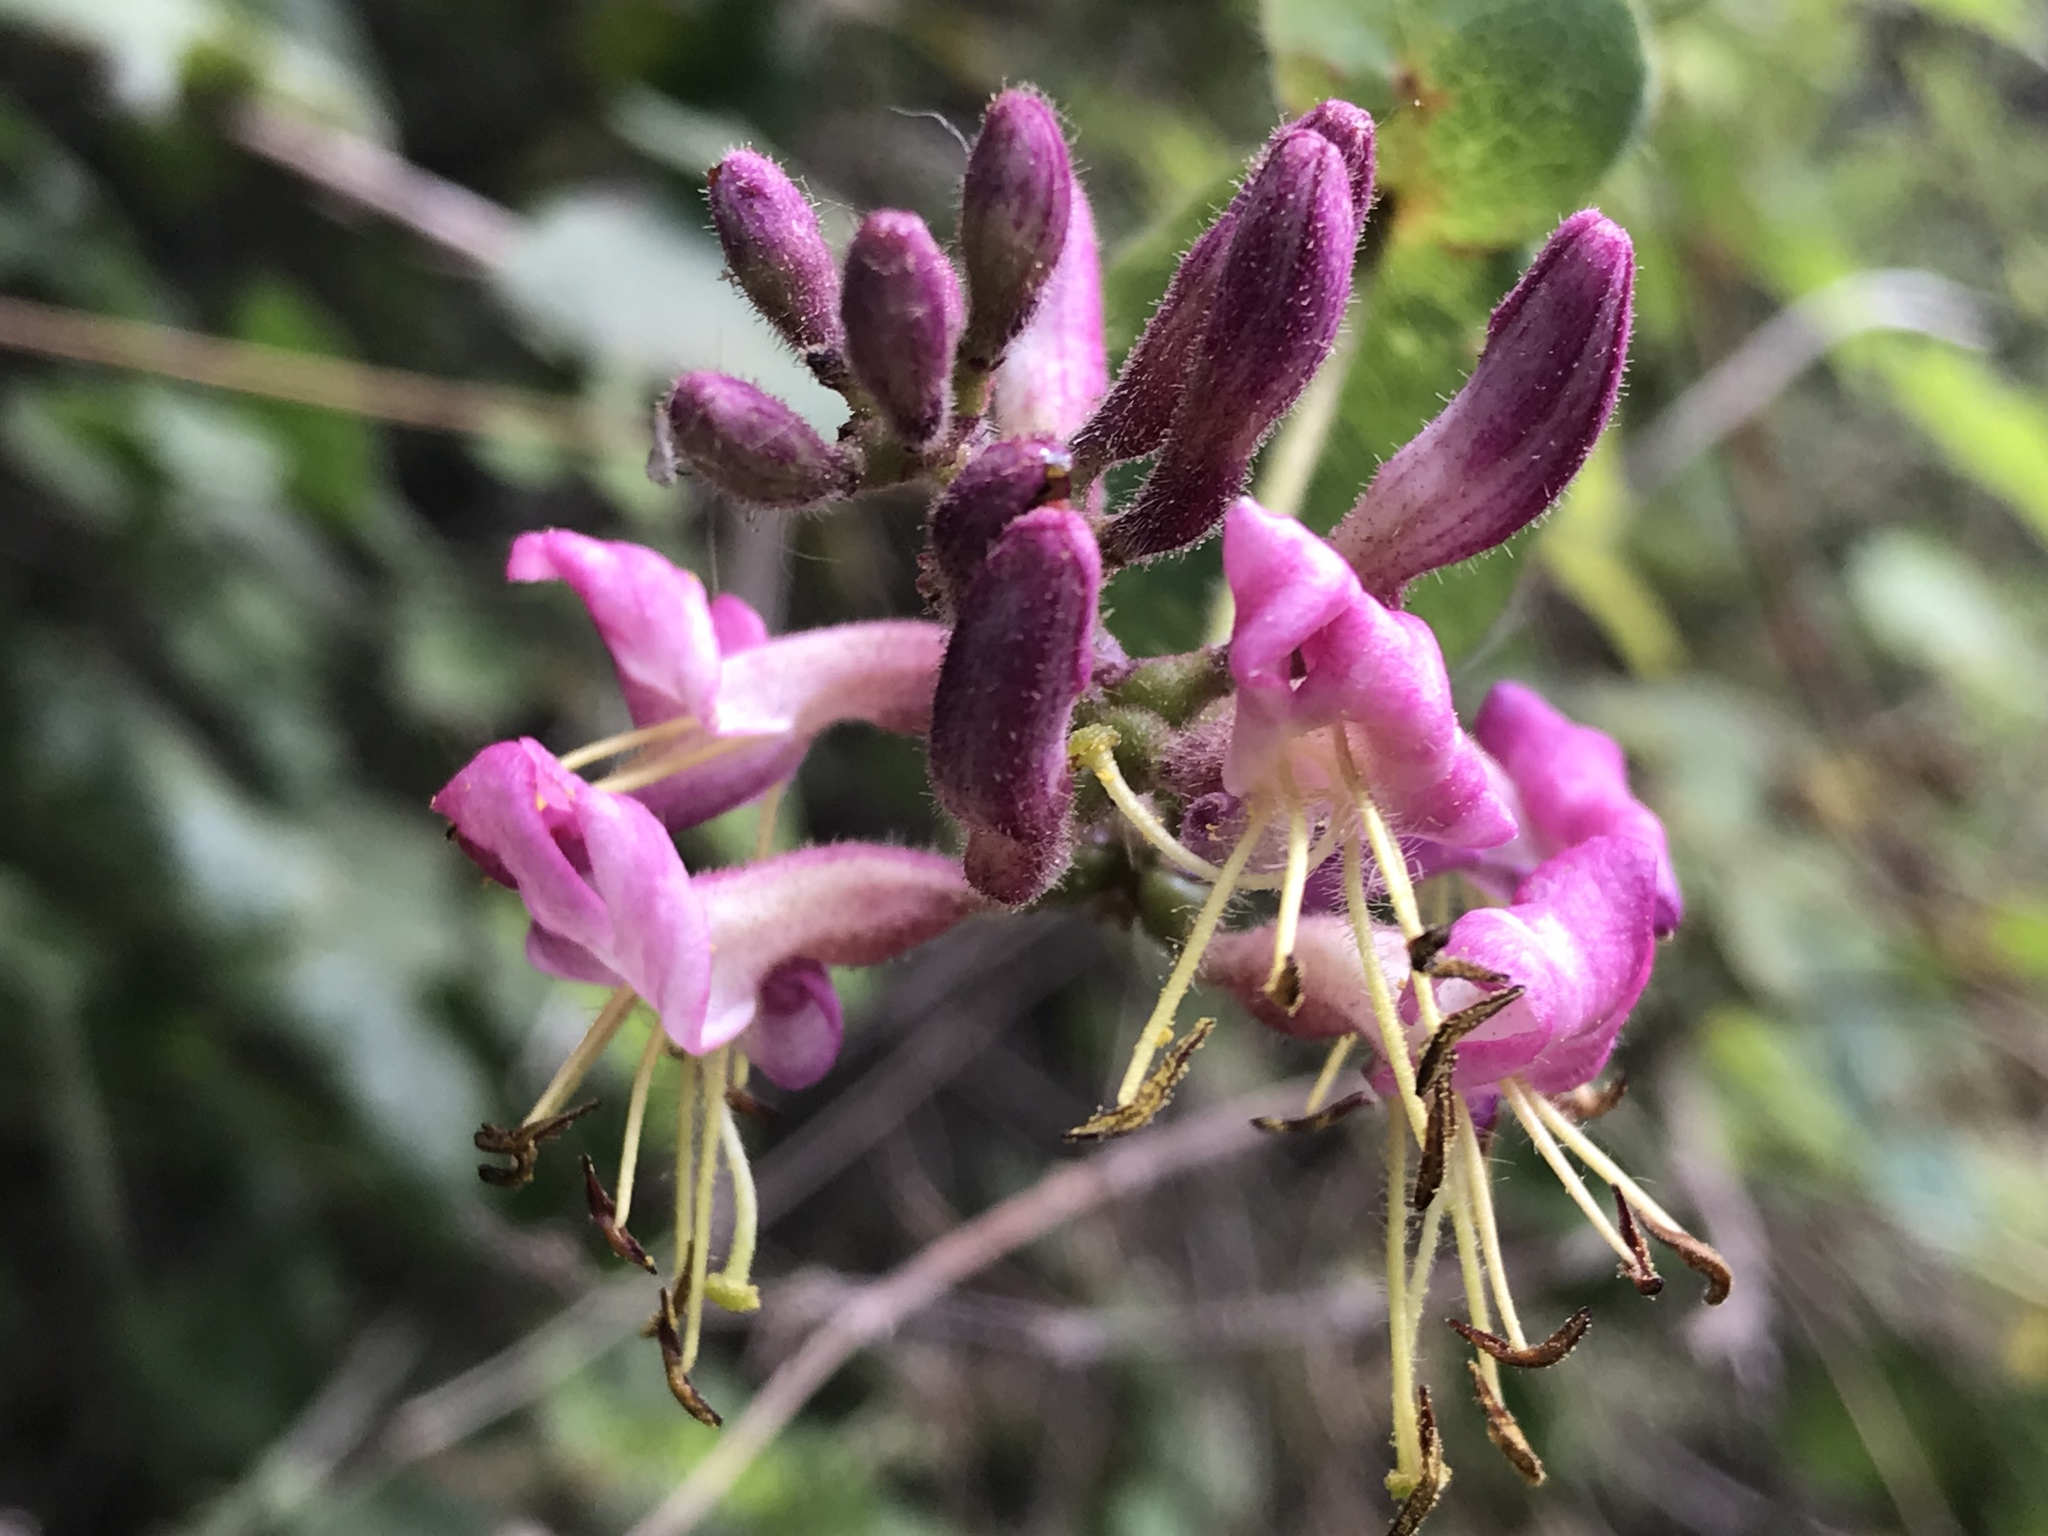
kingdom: Plantae
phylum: Tracheophyta
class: Magnoliopsida
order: Dipsacales
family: Caprifoliaceae
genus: Lonicera
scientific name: Lonicera hispidula
